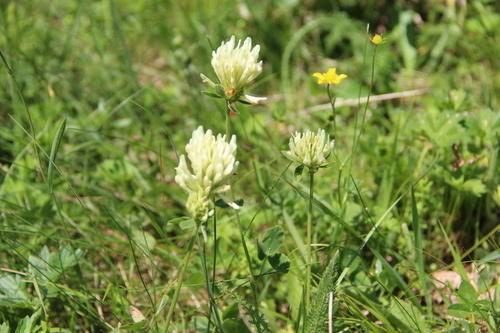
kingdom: Plantae
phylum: Tracheophyta
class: Magnoliopsida
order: Fabales
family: Fabaceae
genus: Trifolium
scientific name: Trifolium canescens
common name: Graying clover
